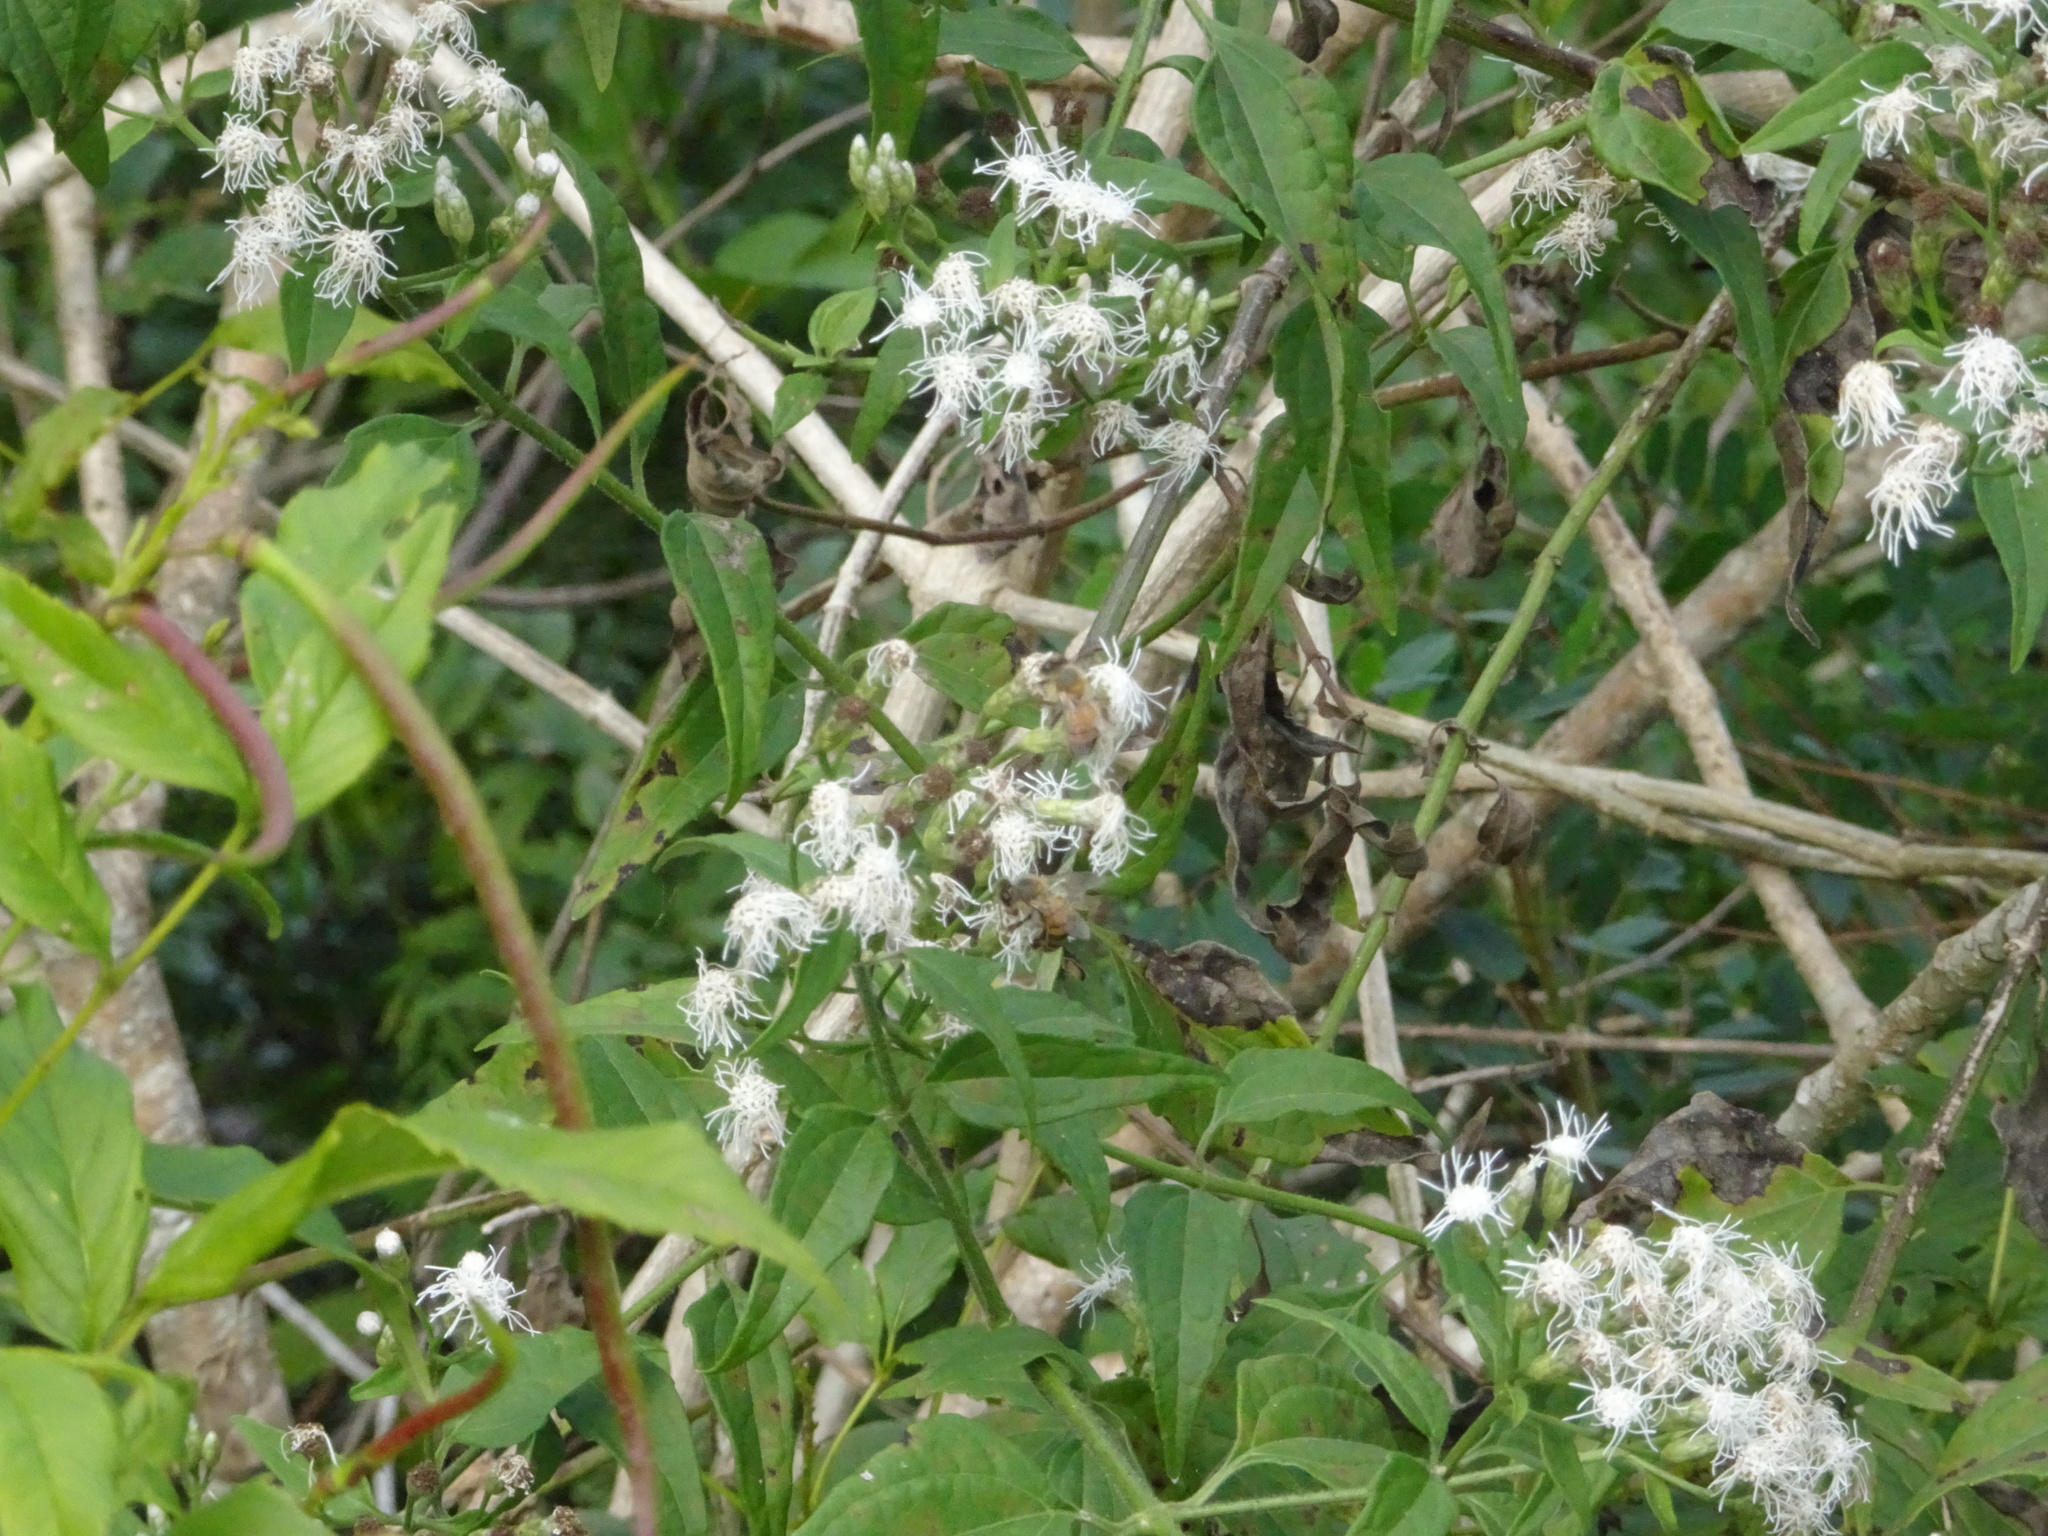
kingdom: Animalia
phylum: Arthropoda
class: Insecta
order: Hymenoptera
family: Apidae
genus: Apis
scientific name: Apis mellifera
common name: Honey bee
